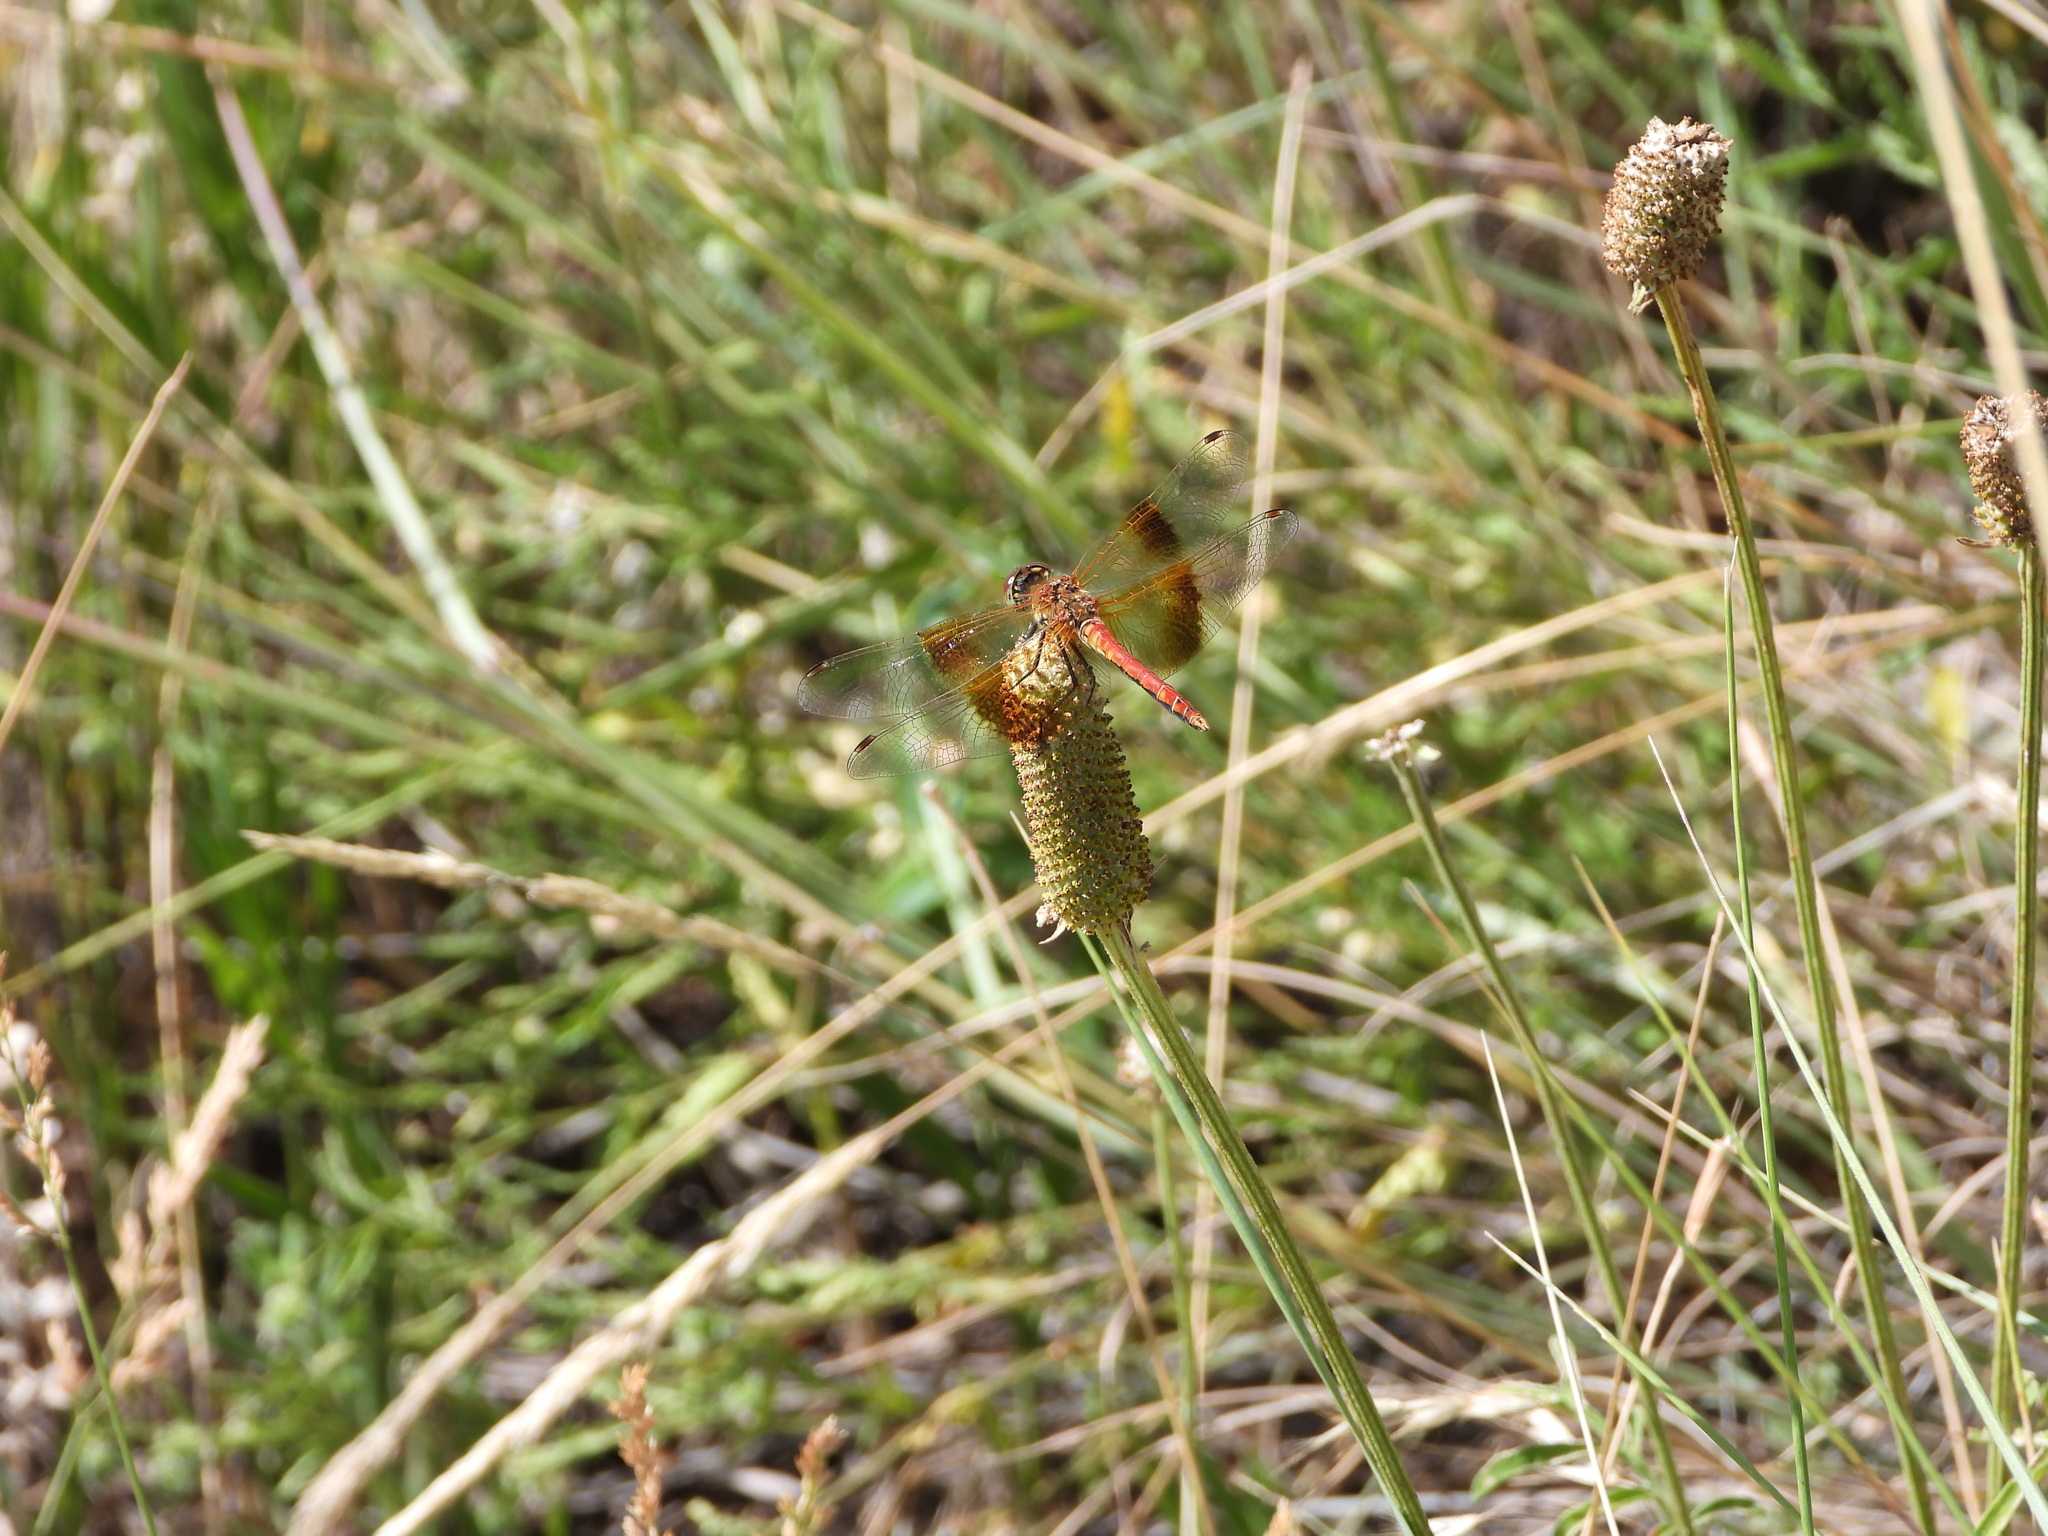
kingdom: Animalia
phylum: Arthropoda
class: Insecta
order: Odonata
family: Libellulidae
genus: Sympetrum
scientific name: Sympetrum semicinctum
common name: Band-winged meadowhawk
